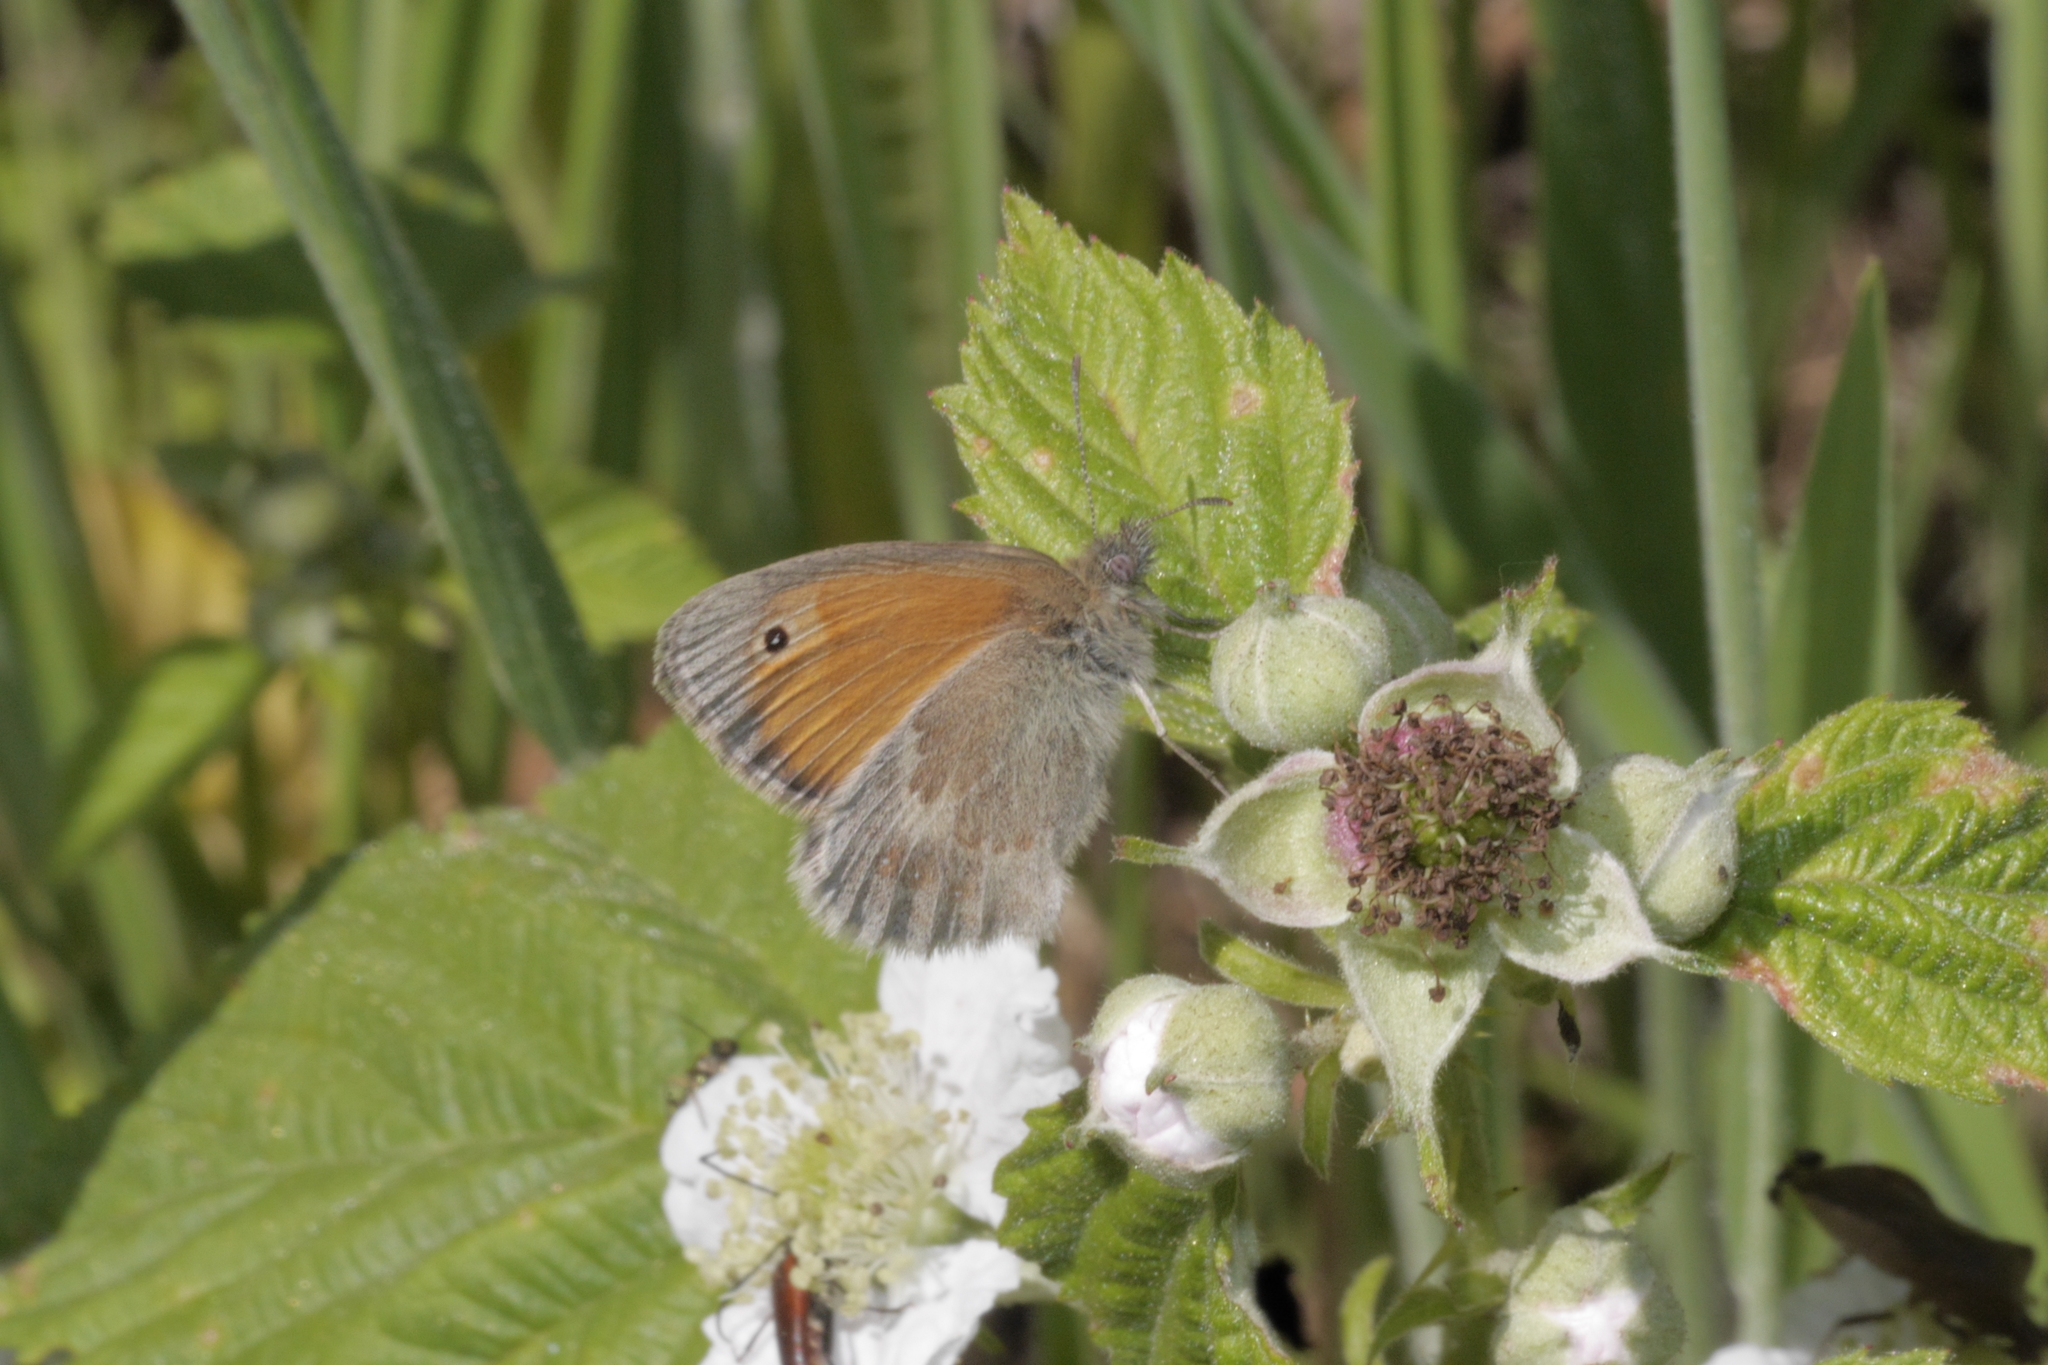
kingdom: Animalia
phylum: Arthropoda
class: Insecta
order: Lepidoptera
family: Nymphalidae
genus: Coenonympha
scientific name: Coenonympha pamphilus
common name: Small heath
